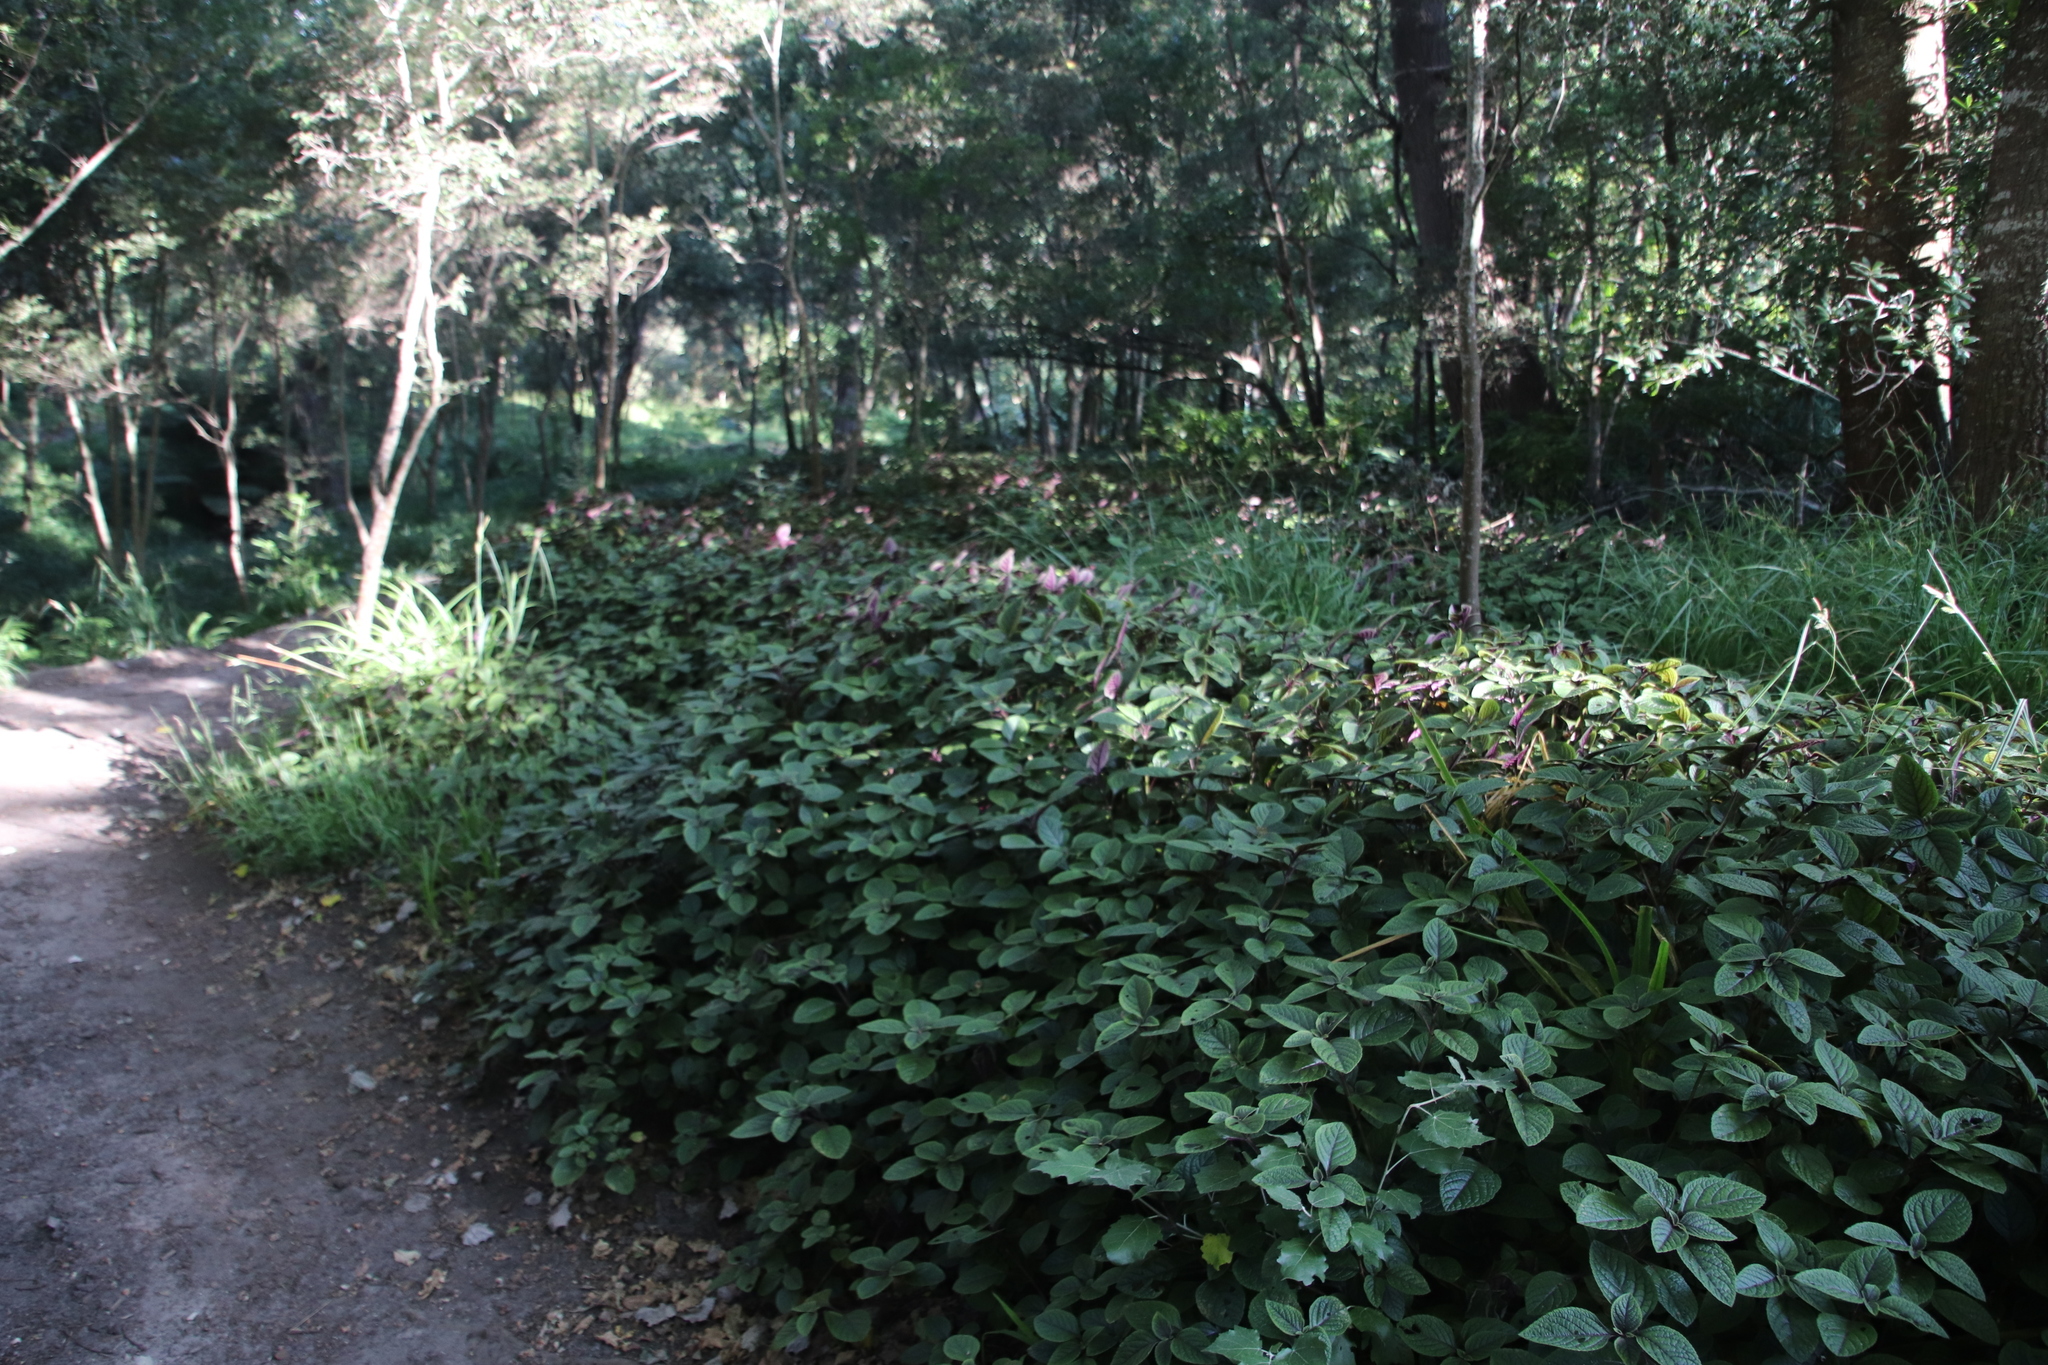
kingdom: Plantae
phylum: Tracheophyta
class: Magnoliopsida
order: Lamiales
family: Lamiaceae
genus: Plectranthus
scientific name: Plectranthus ciliatus
